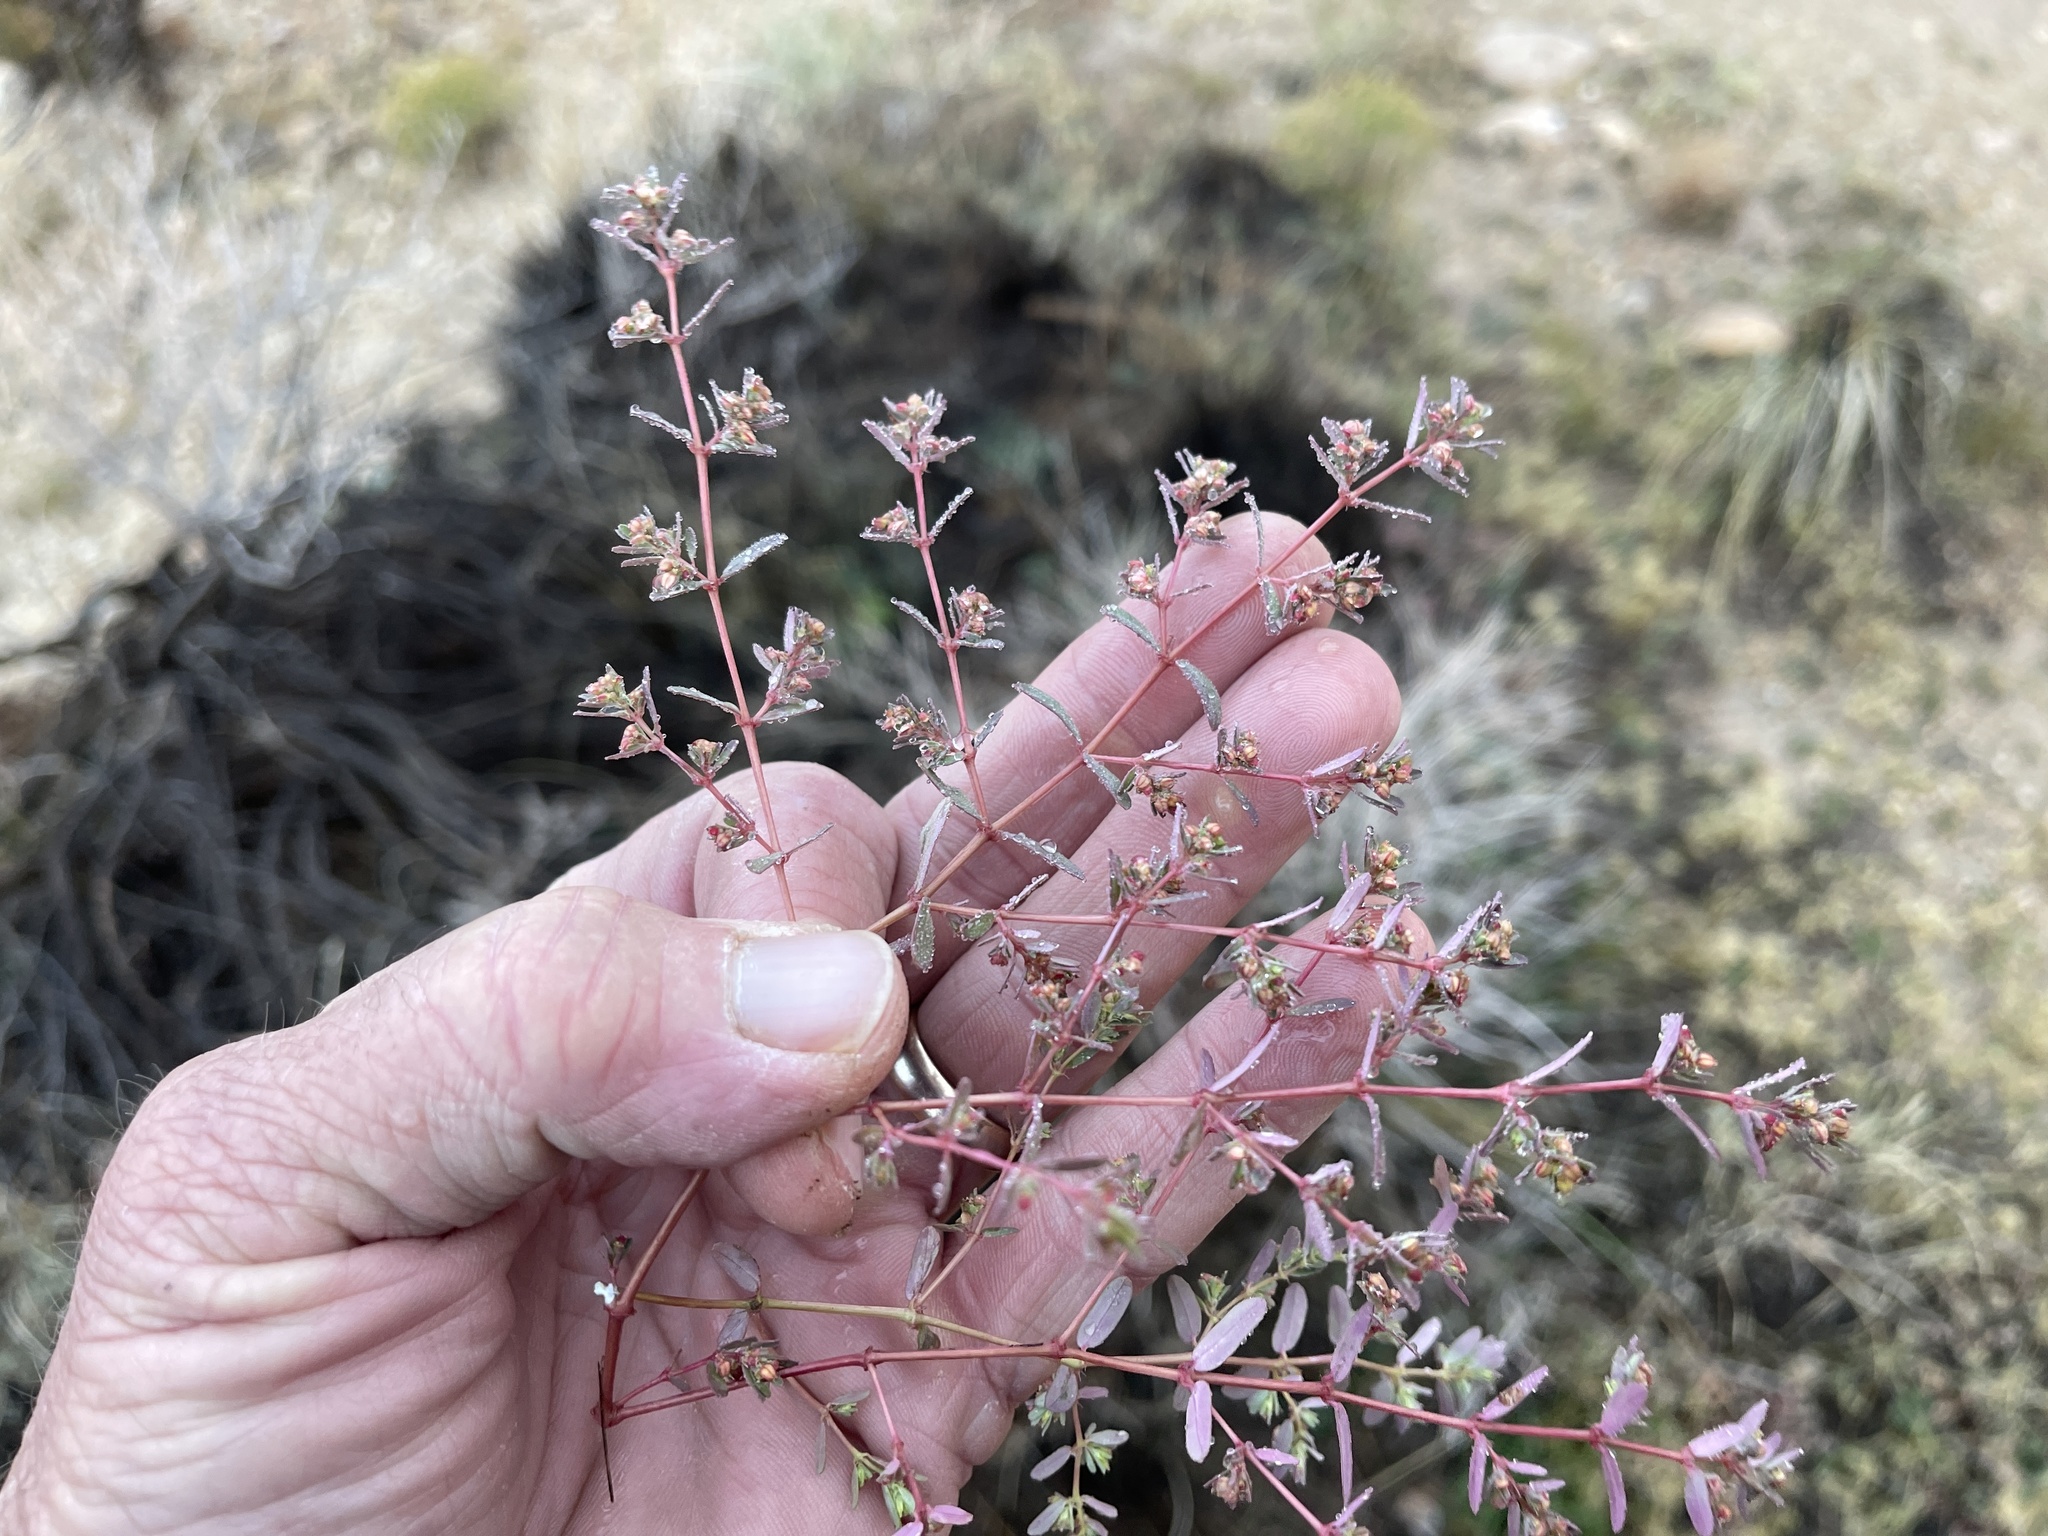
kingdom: Plantae
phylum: Tracheophyta
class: Magnoliopsida
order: Malpighiales
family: Euphorbiaceae
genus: Euphorbia
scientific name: Euphorbia serpillifolia
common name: Thyme-leaf spurge
